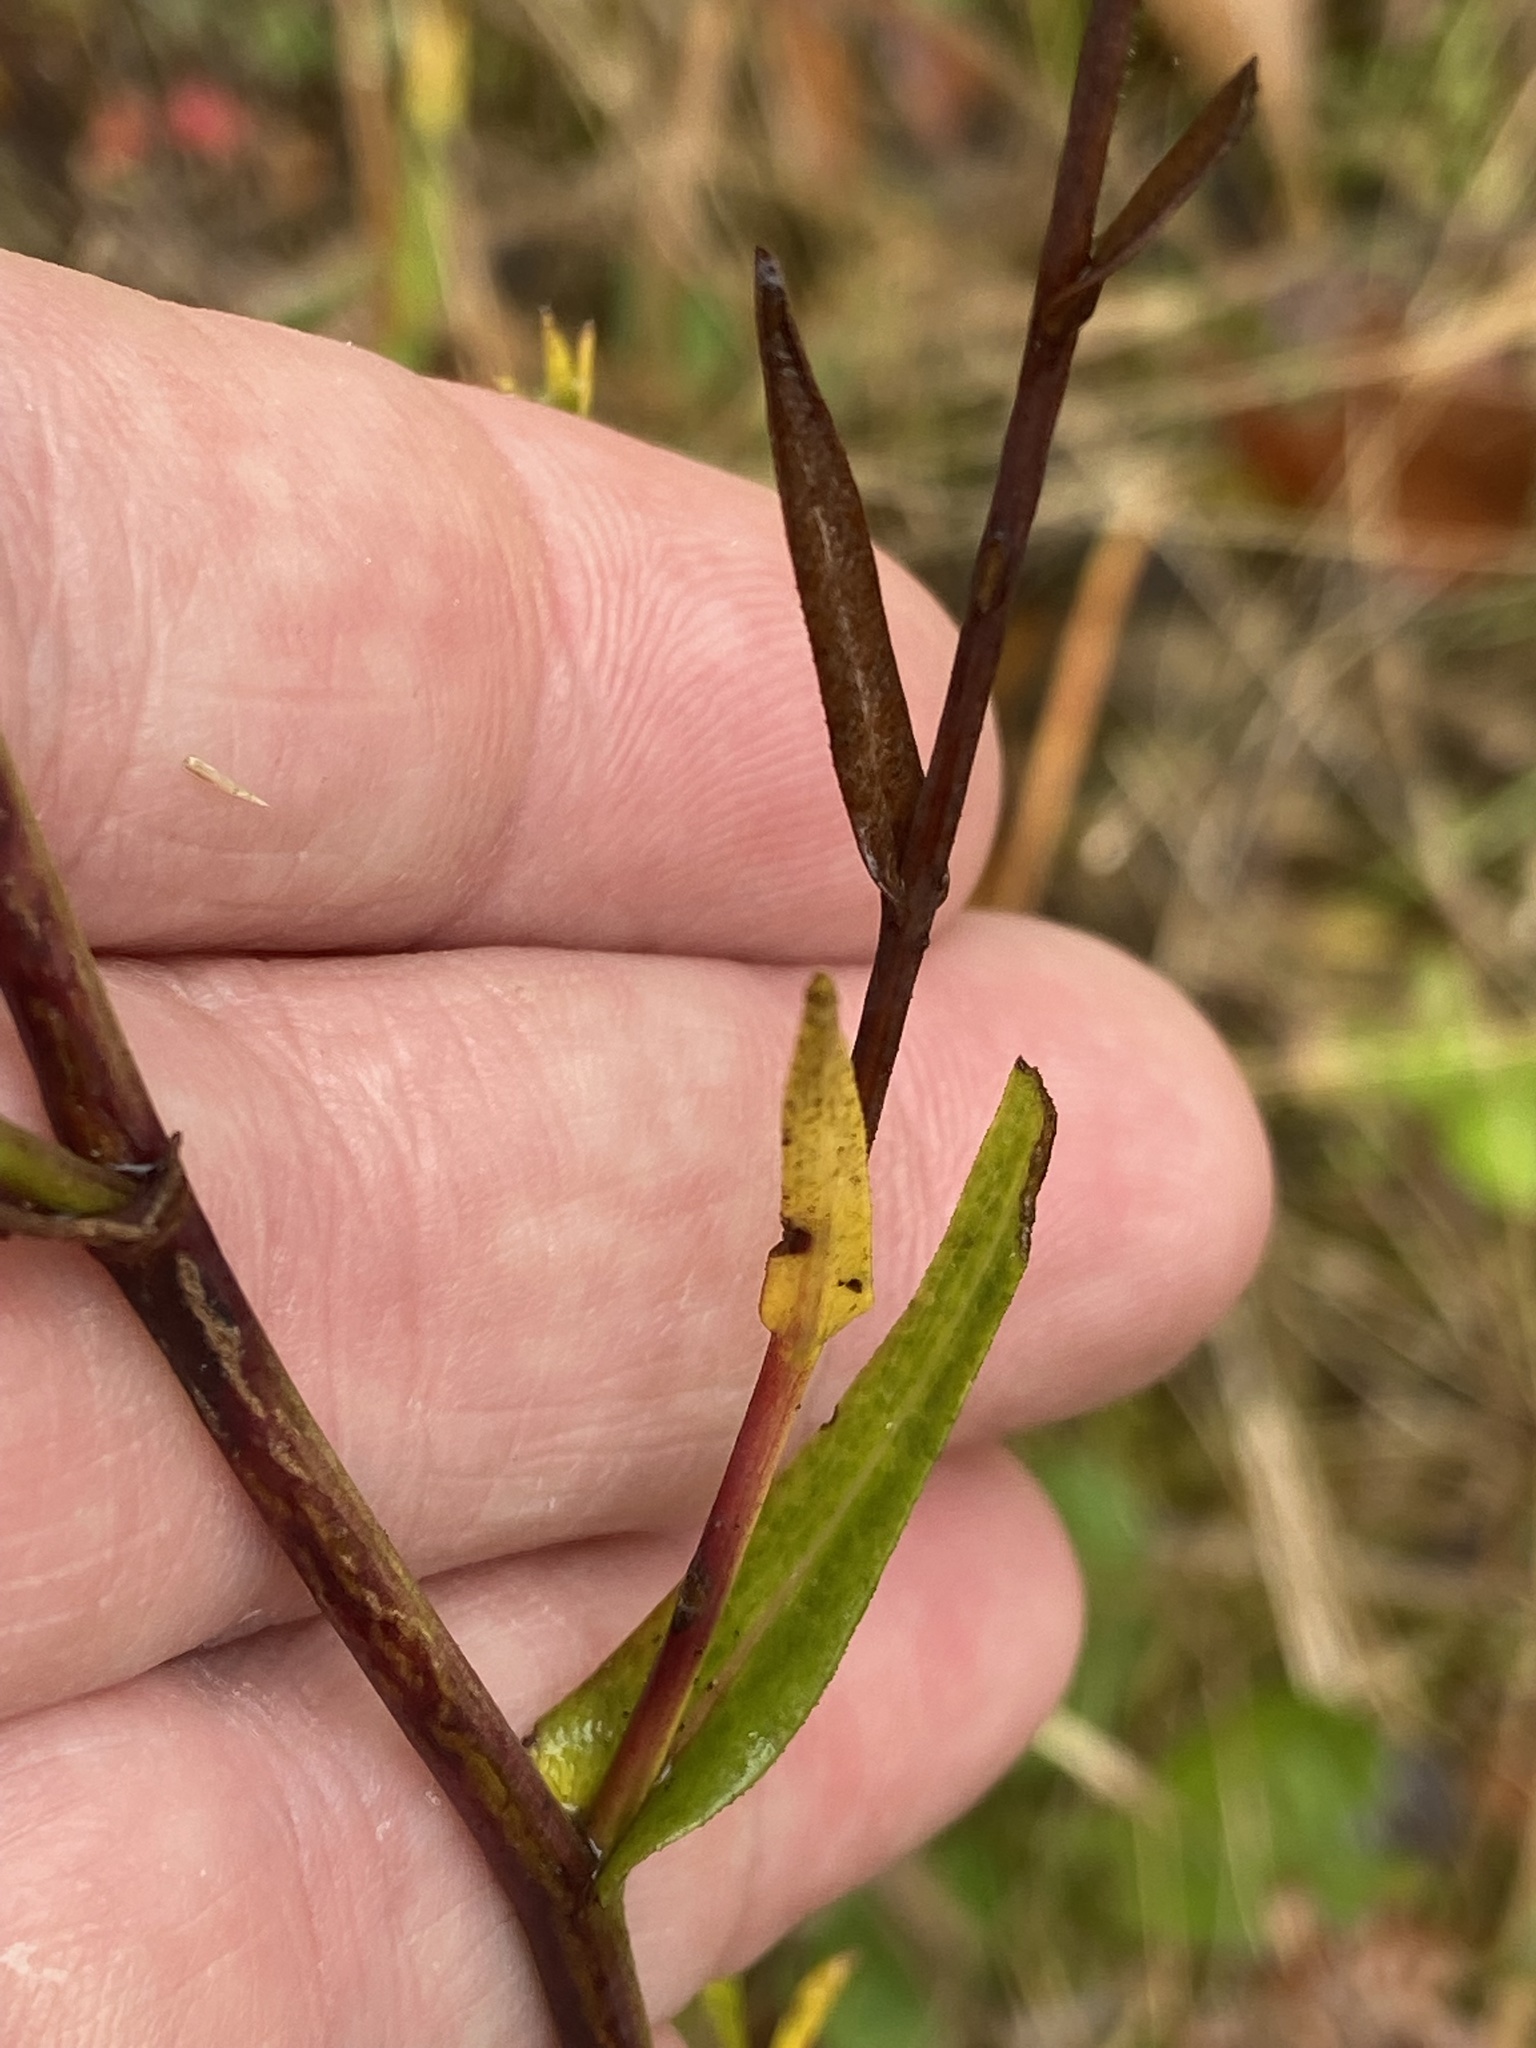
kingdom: Plantae
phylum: Tracheophyta
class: Magnoliopsida
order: Asterales
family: Asteraceae
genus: Symphyotrichum
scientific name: Symphyotrichum laeve
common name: Glaucous aster
